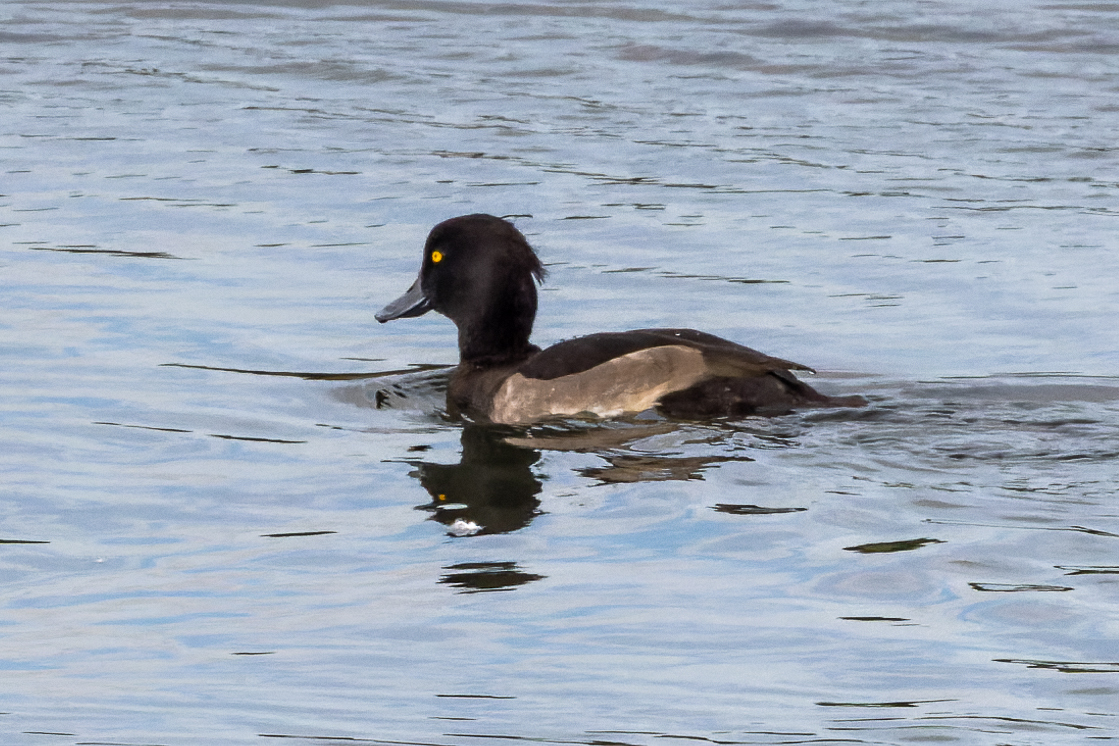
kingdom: Animalia
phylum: Chordata
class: Aves
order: Anseriformes
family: Anatidae
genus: Aythya
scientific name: Aythya fuligula
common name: Tufted duck
